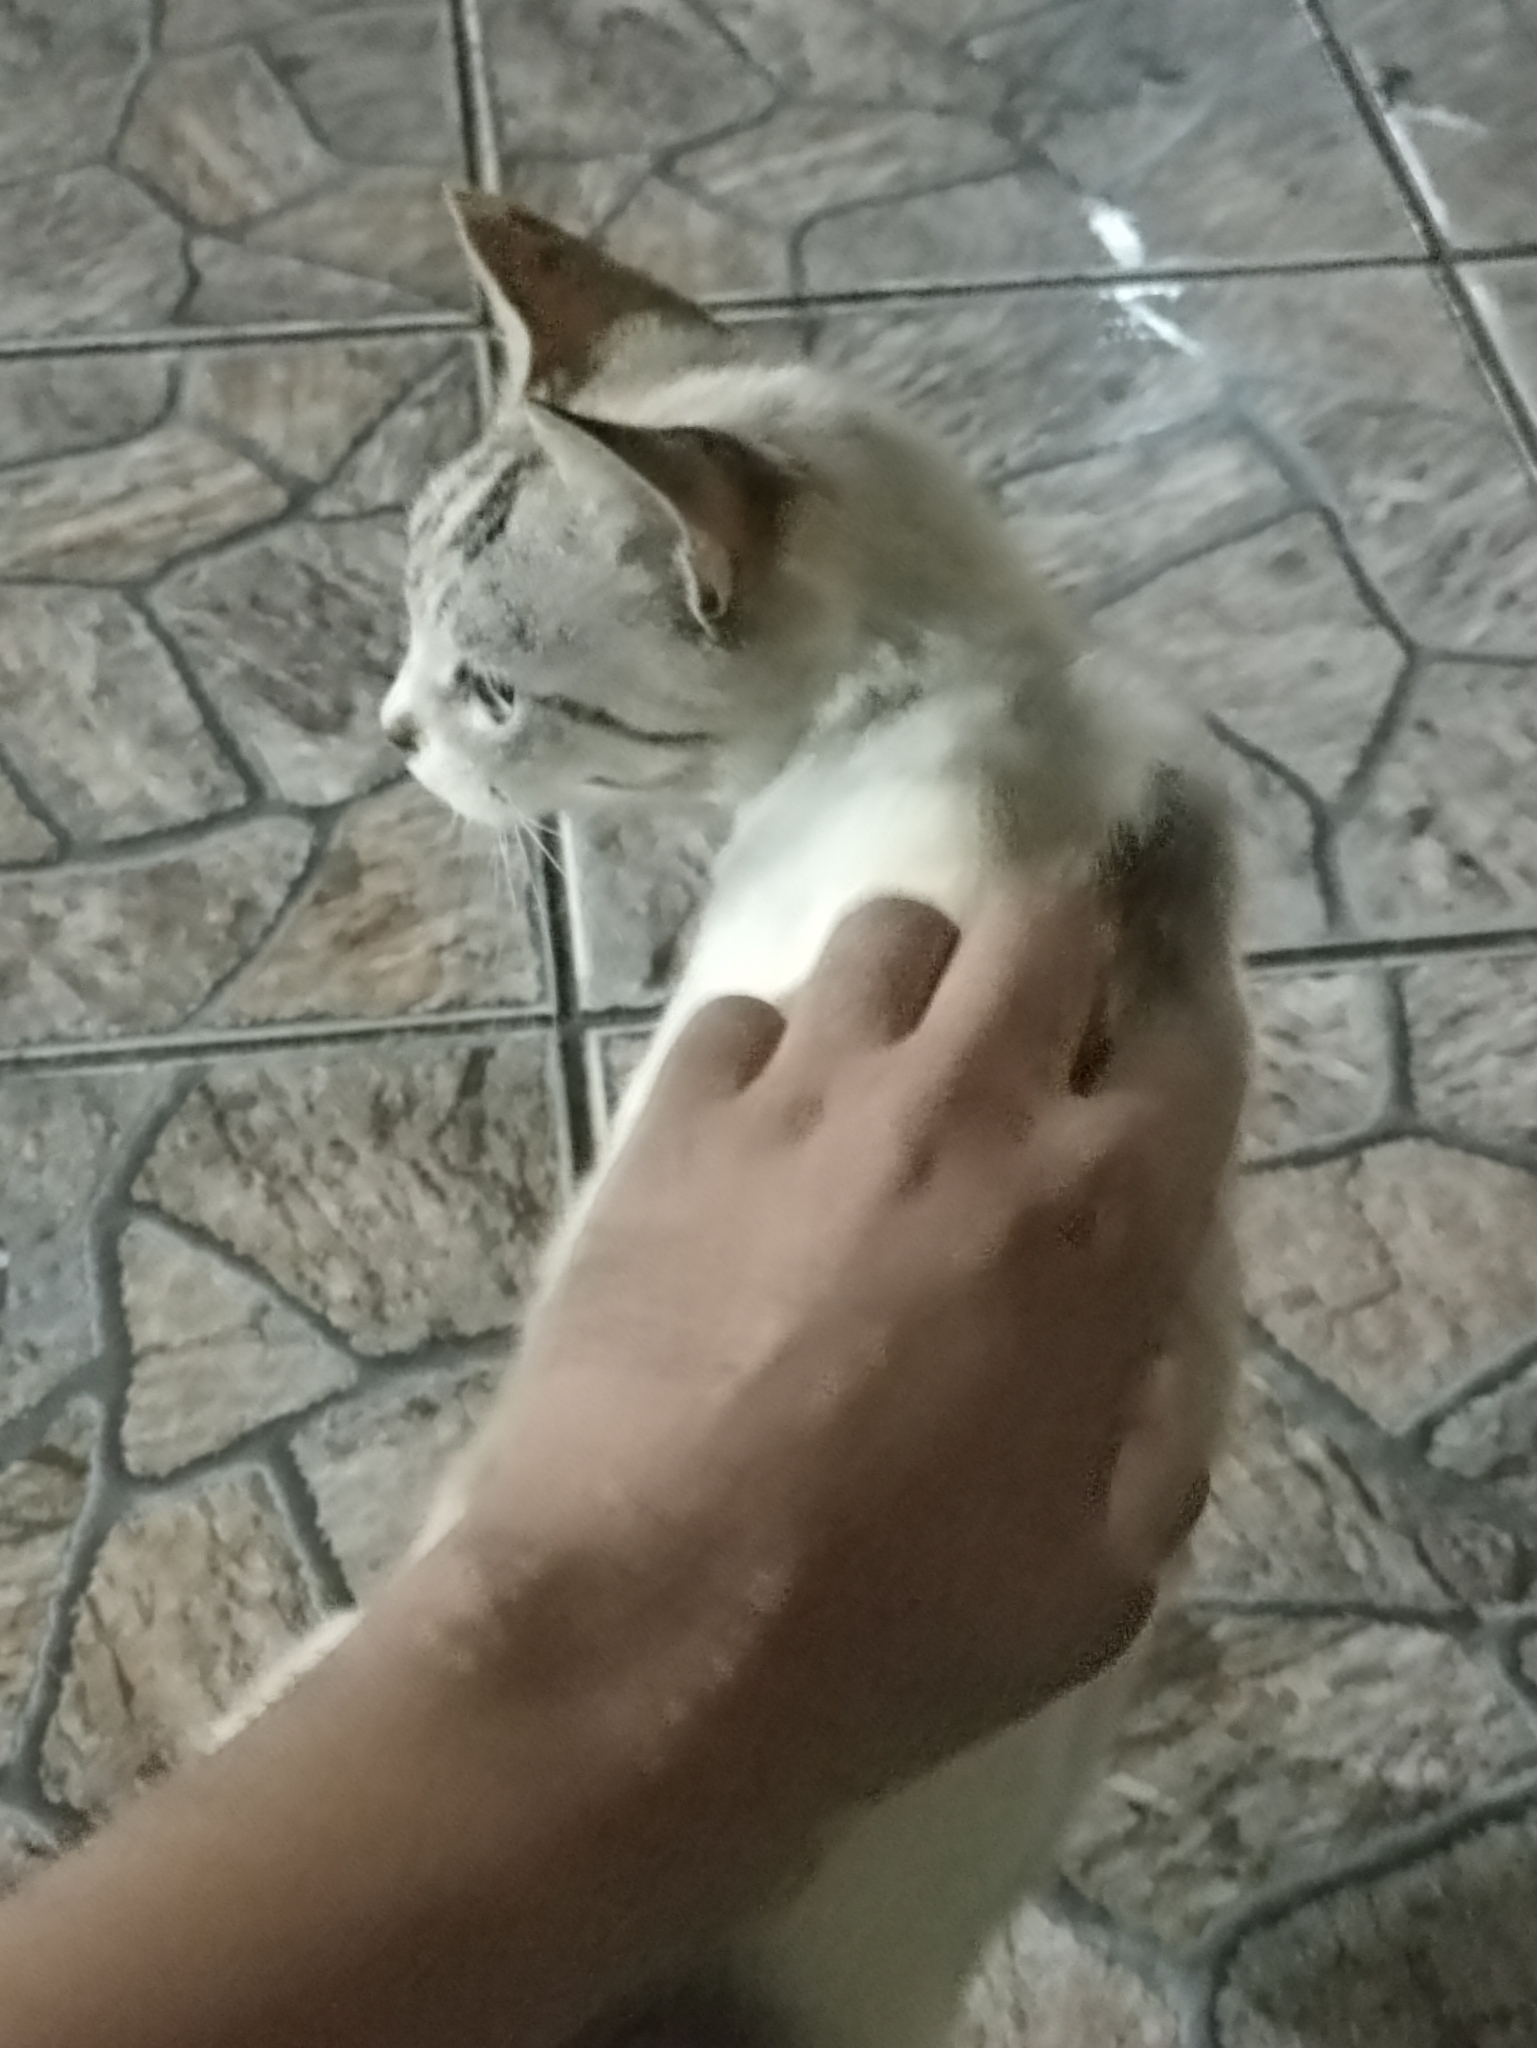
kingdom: Animalia
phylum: Chordata
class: Mammalia
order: Carnivora
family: Felidae
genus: Felis
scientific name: Felis catus
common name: Domestic cat
